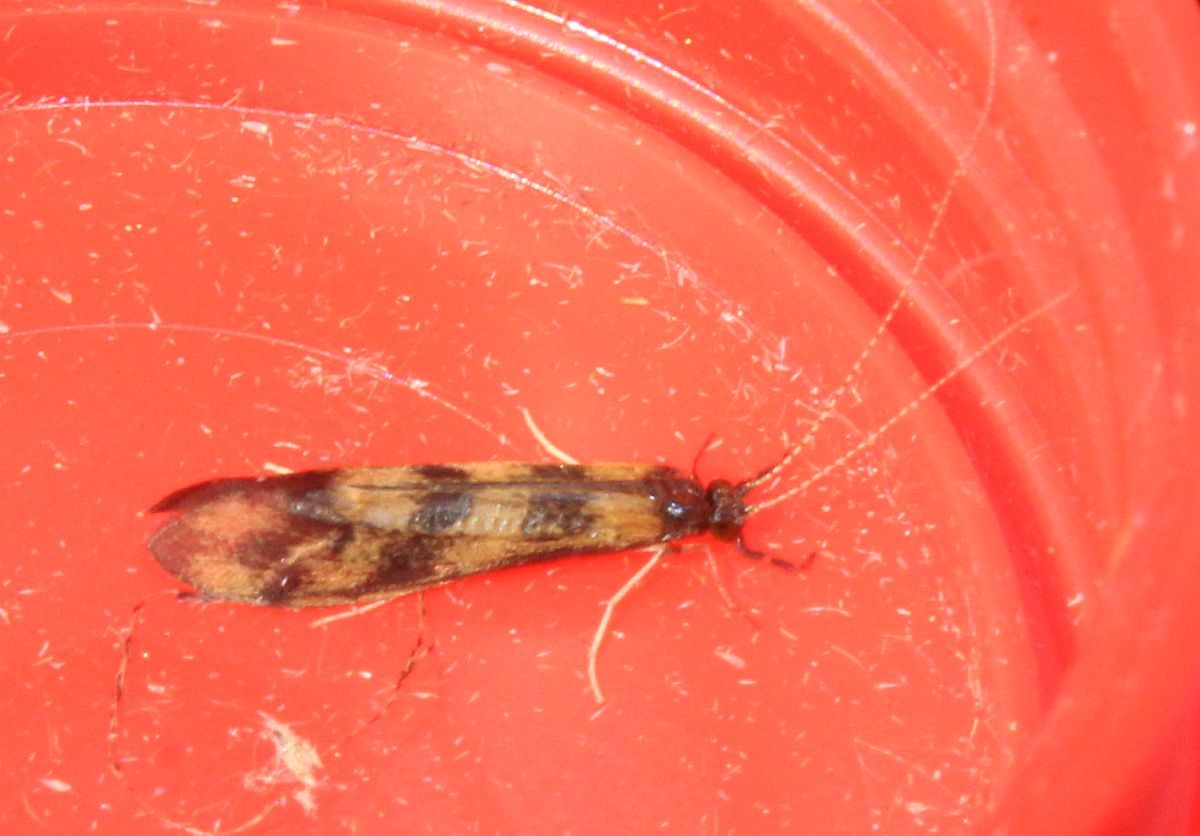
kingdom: Animalia
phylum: Arthropoda
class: Insecta
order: Trichoptera
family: Leptoceridae
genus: Mystacides
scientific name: Mystacides longicornis
